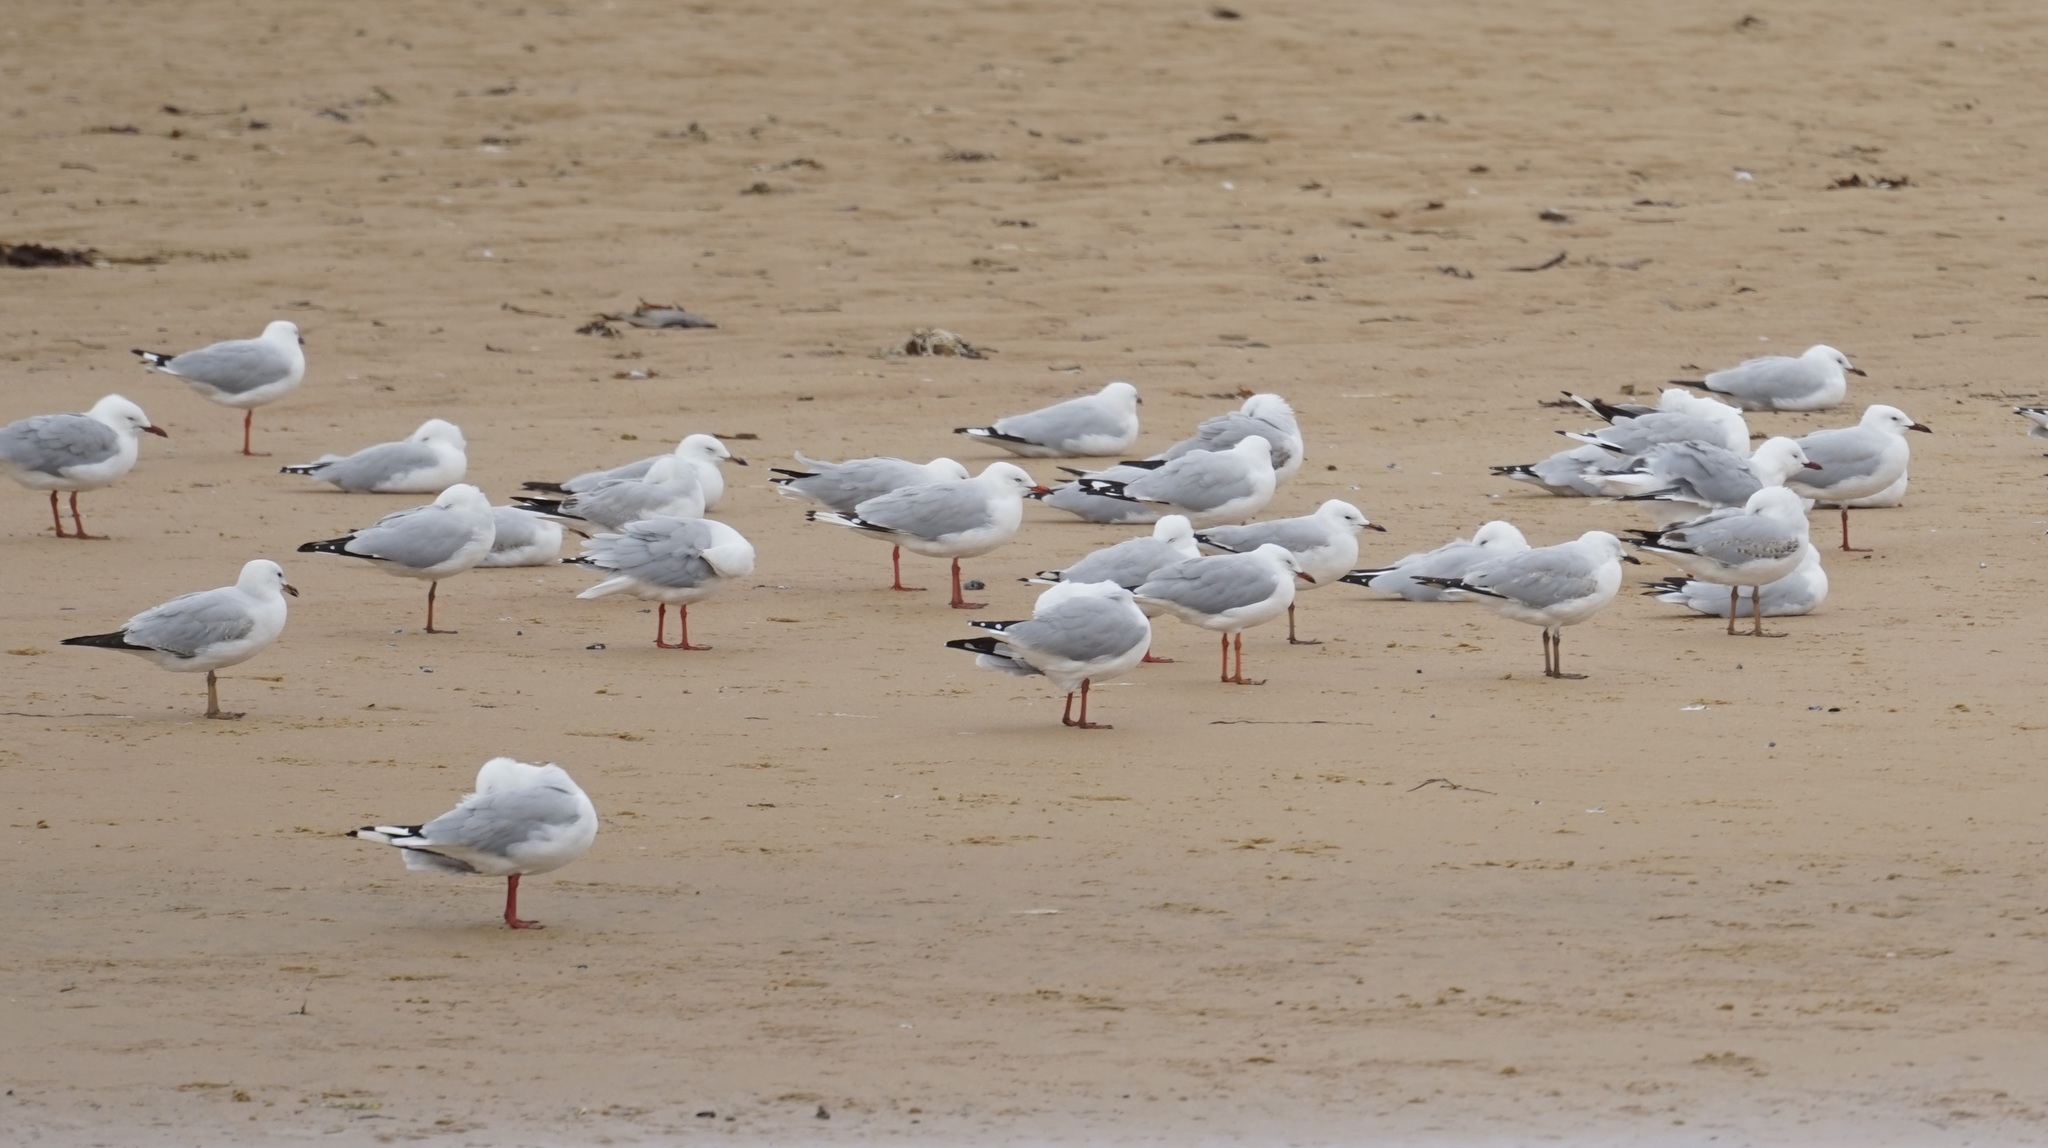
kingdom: Animalia
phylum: Chordata
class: Aves
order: Charadriiformes
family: Laridae
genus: Chroicocephalus
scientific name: Chroicocephalus novaehollandiae
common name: Silver gull
